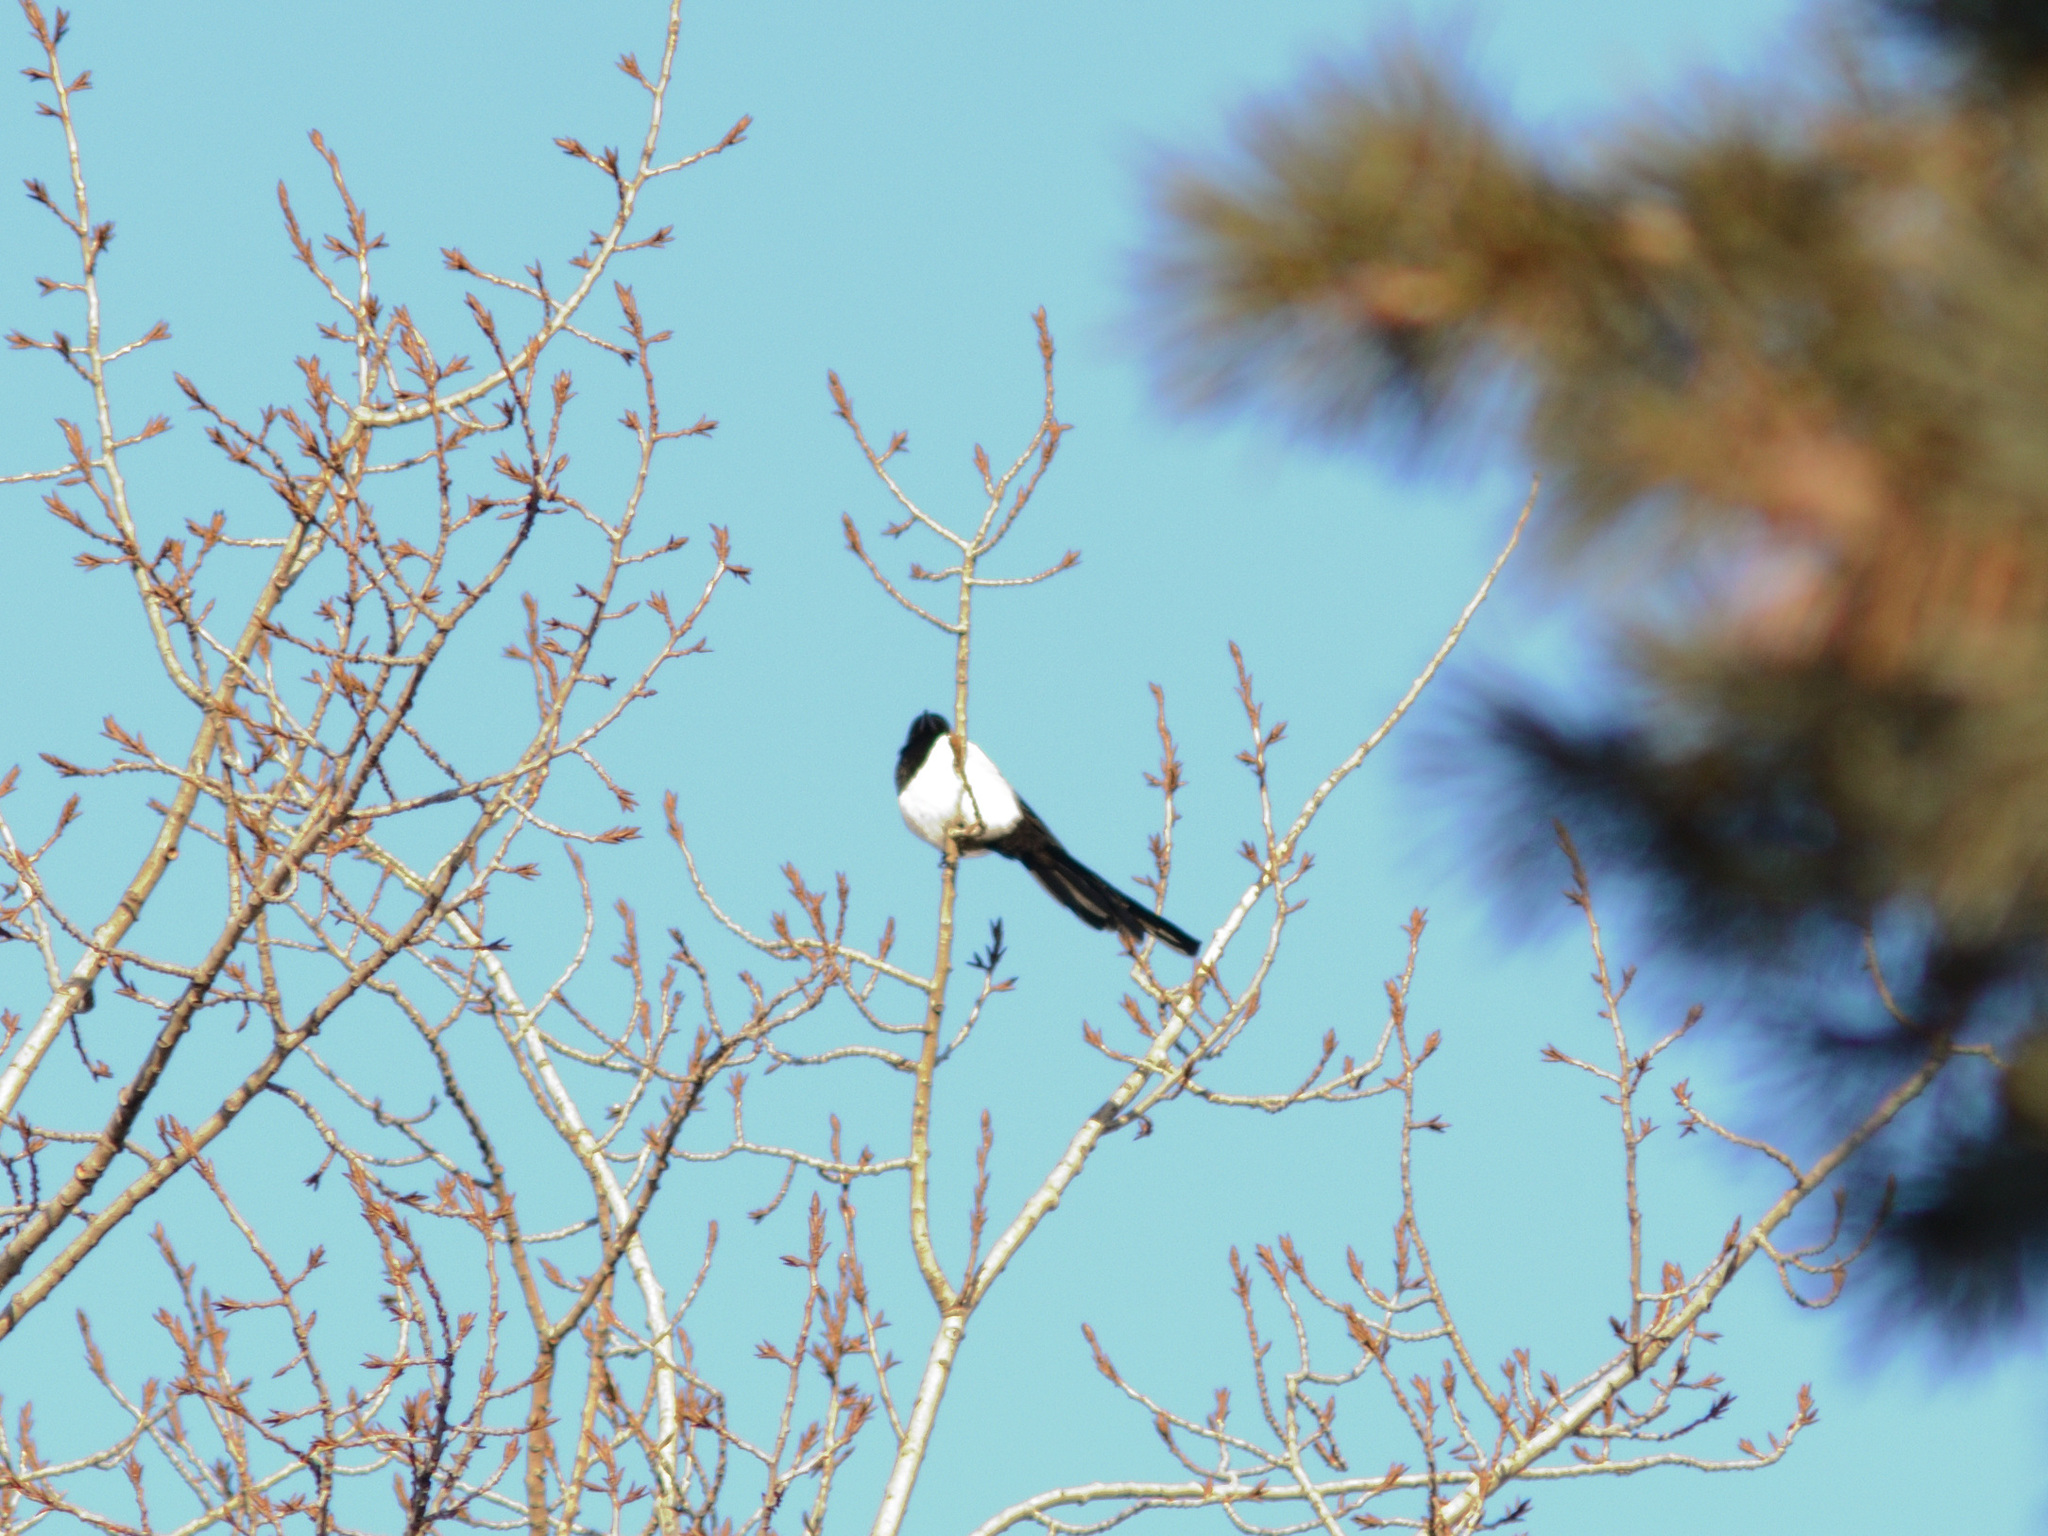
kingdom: Animalia
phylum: Chordata
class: Aves
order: Passeriformes
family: Corvidae
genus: Pica
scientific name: Pica pica
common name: Eurasian magpie
